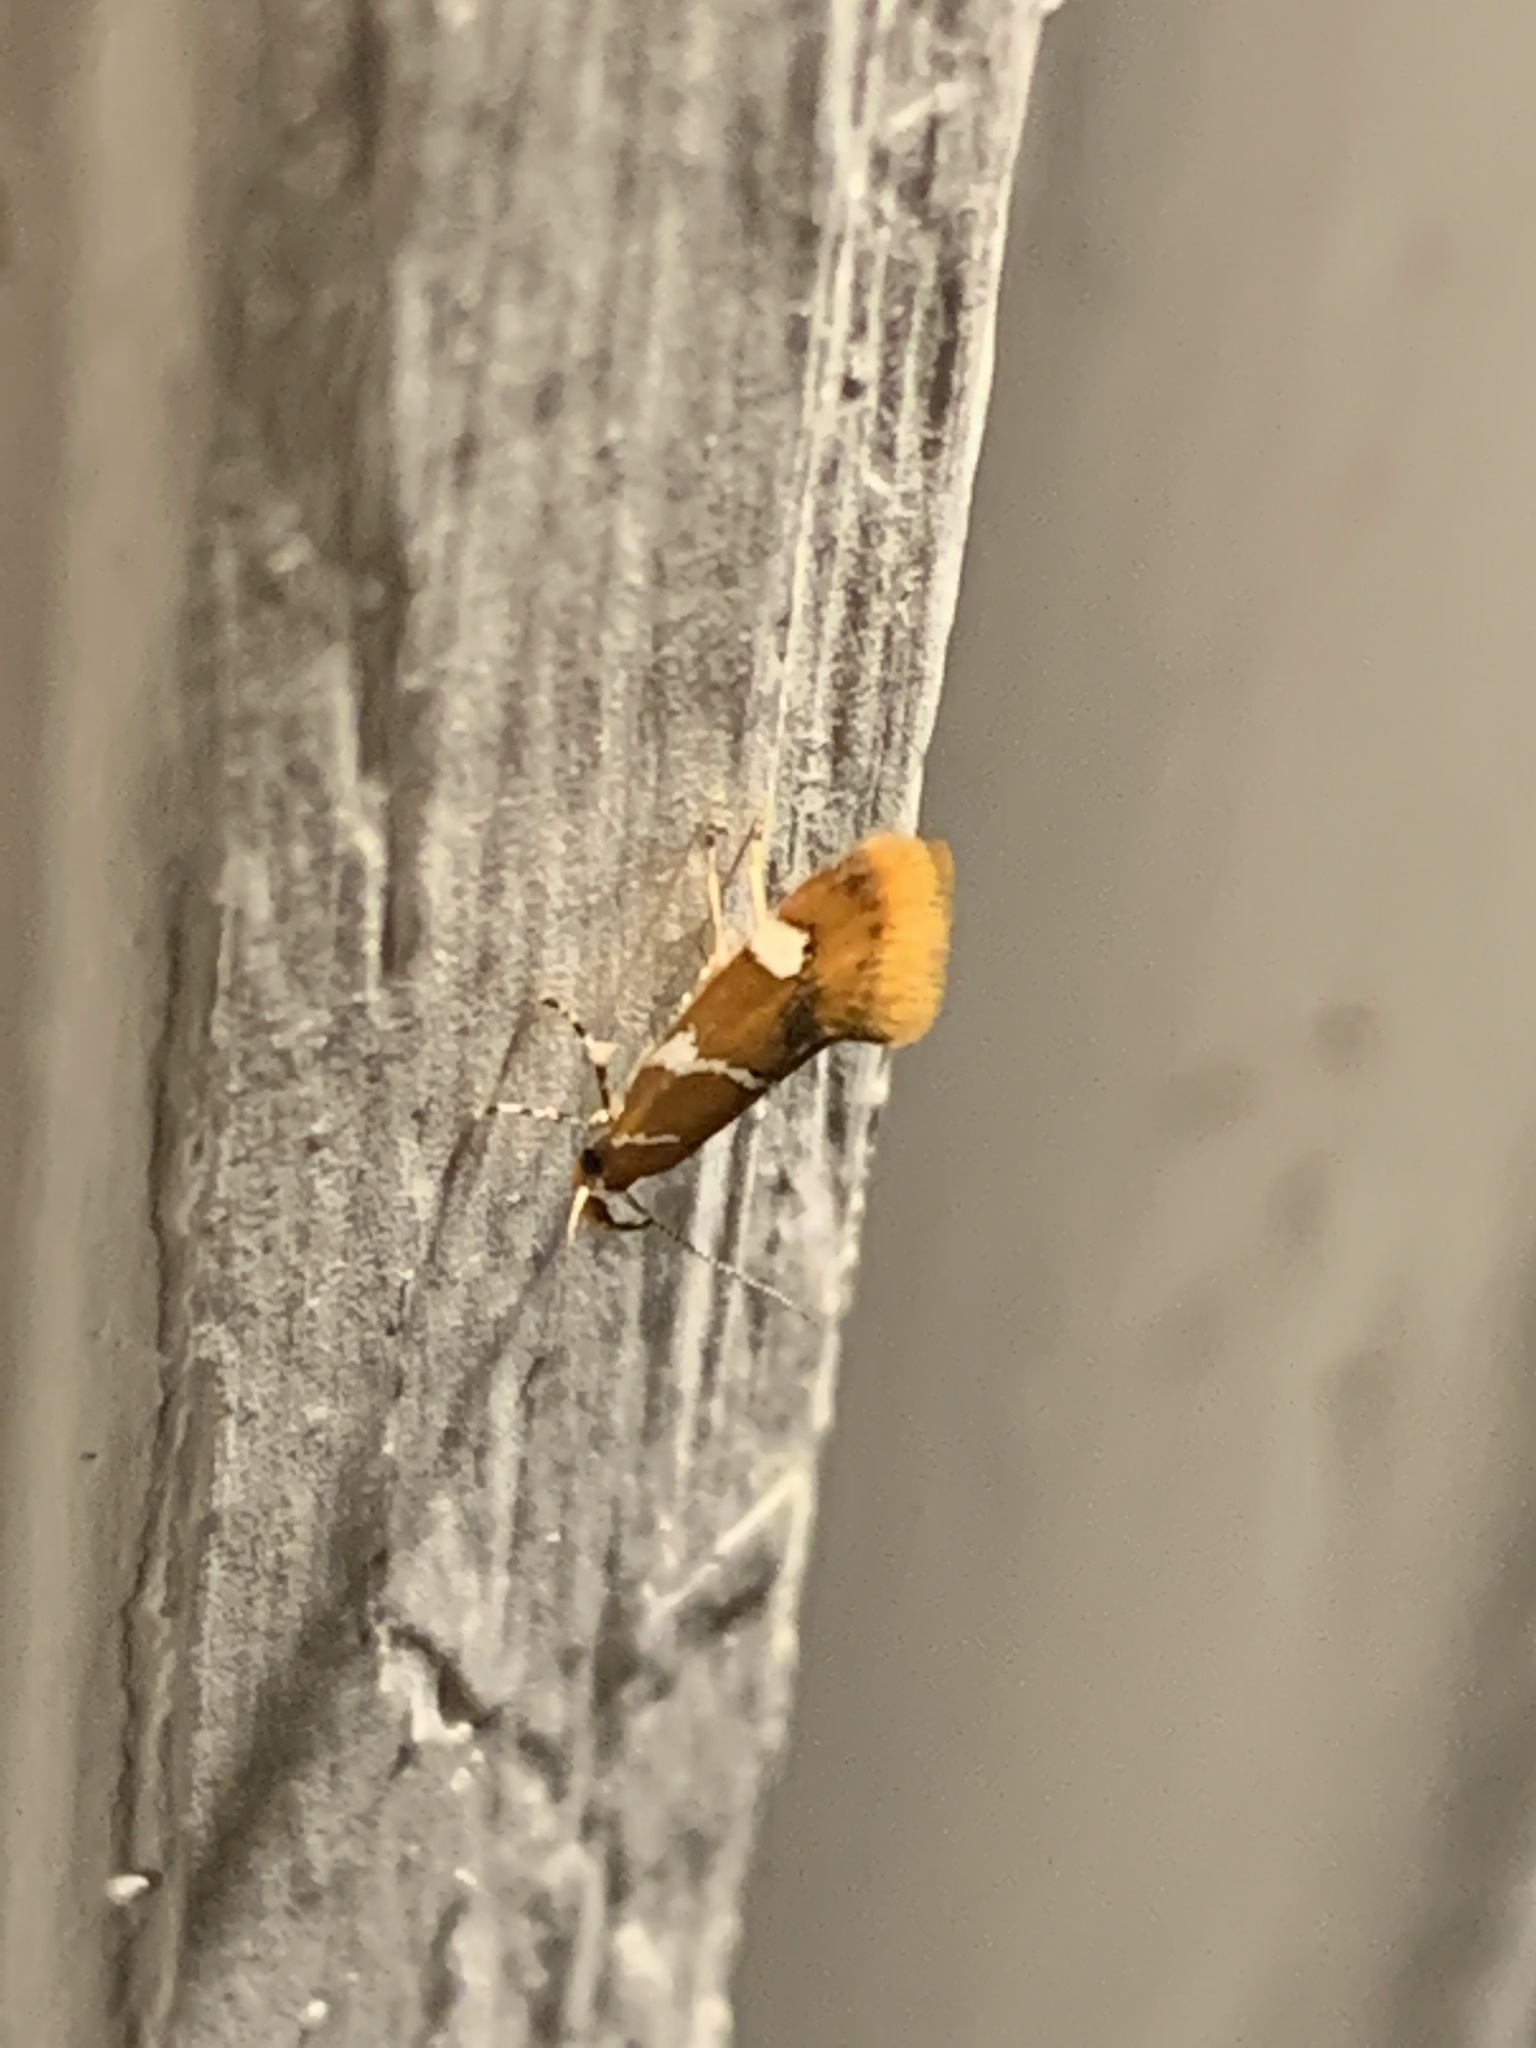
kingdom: Animalia
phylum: Arthropoda
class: Insecta
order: Lepidoptera
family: Oecophoridae
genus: Promalactis
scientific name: Promalactis suzukiella
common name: Moth
